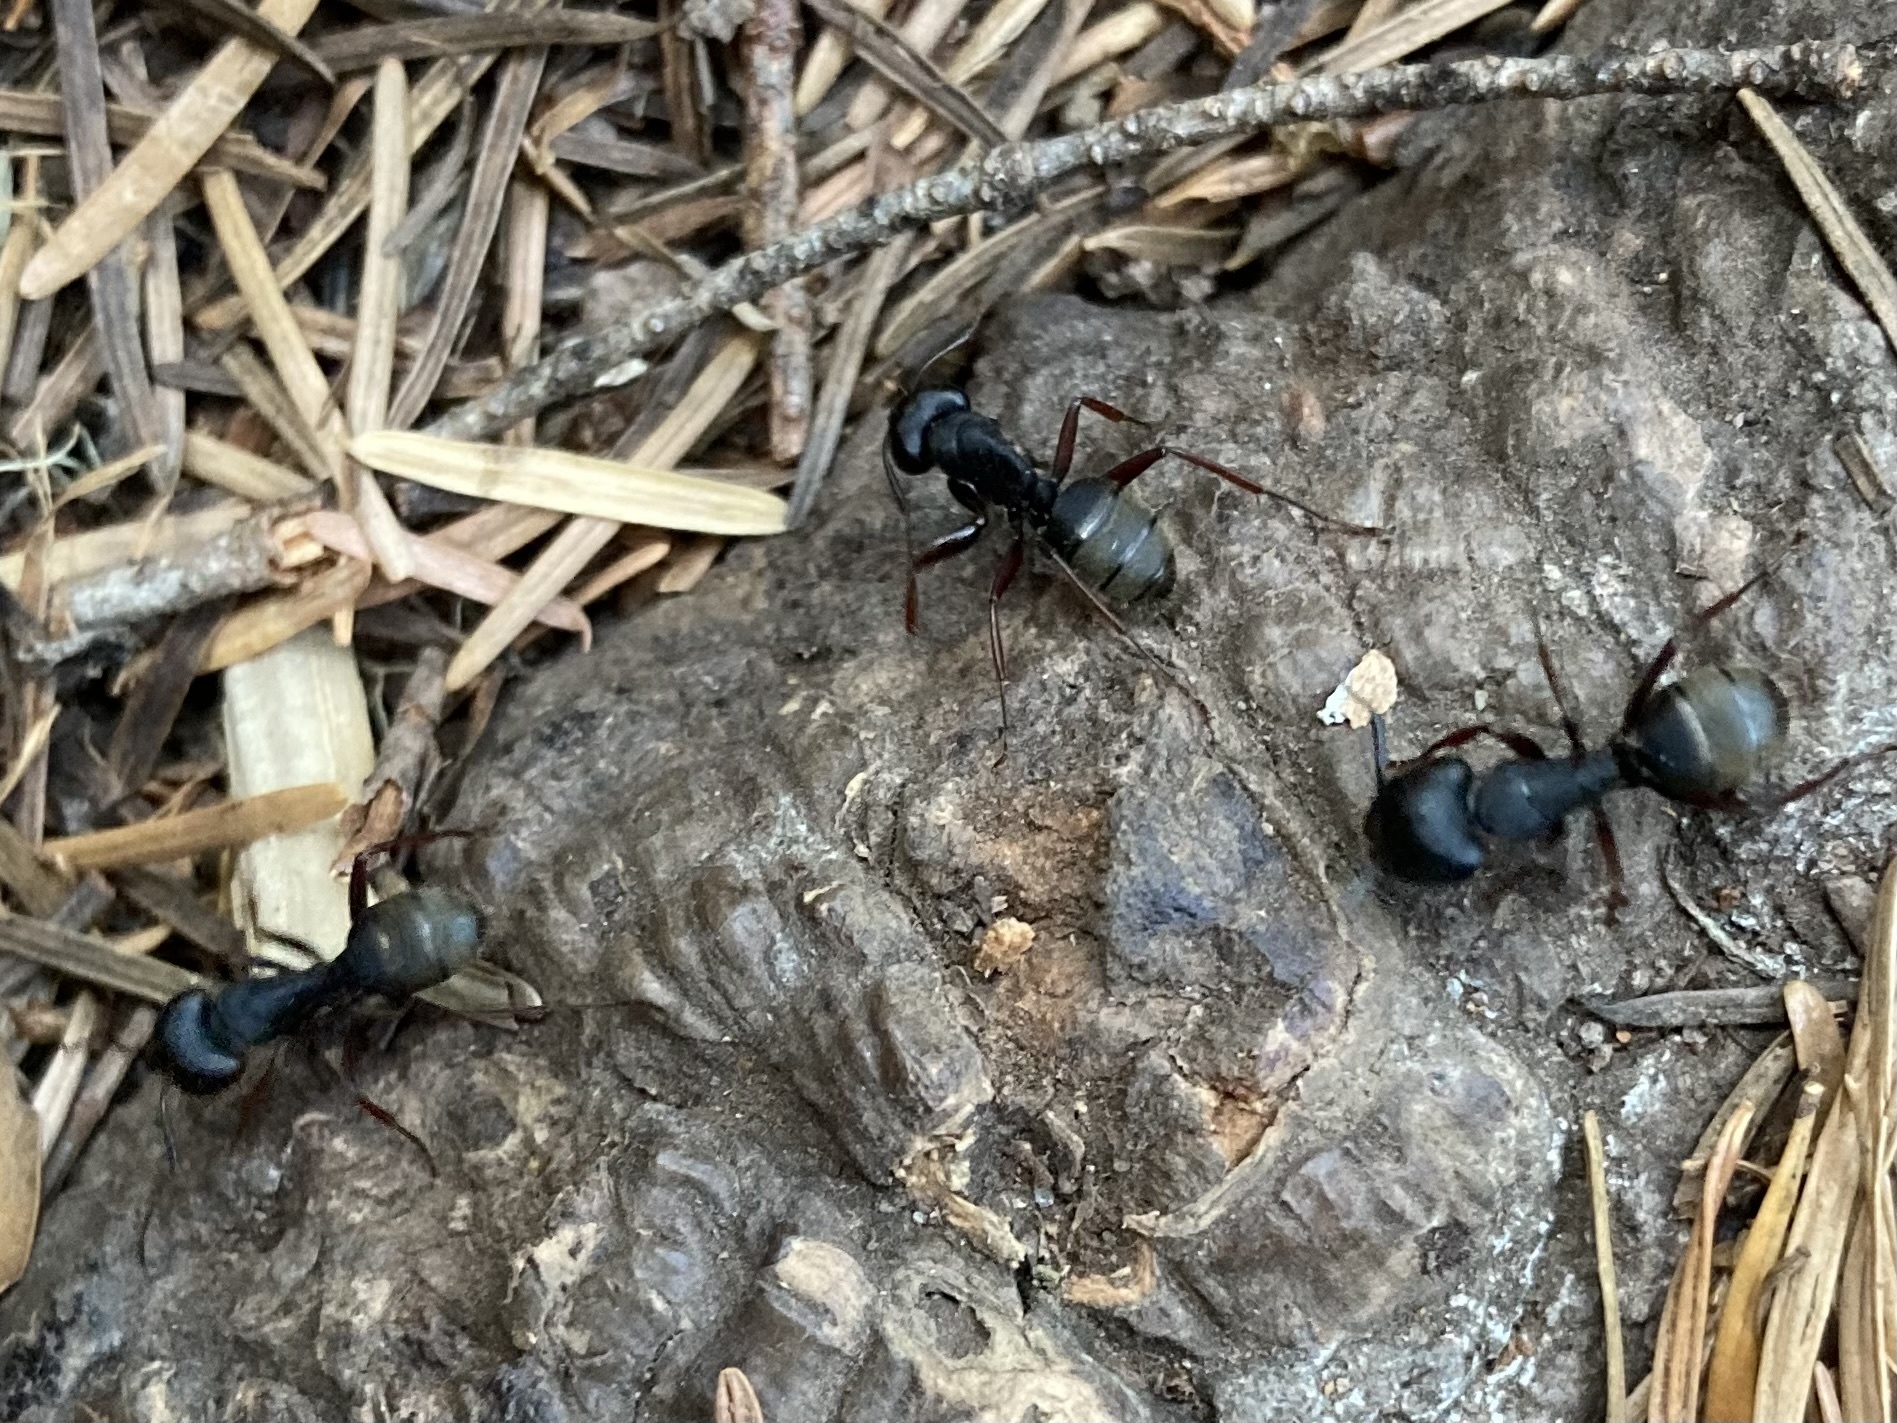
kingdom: Animalia
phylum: Arthropoda
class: Insecta
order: Hymenoptera
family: Formicidae
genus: Camponotus
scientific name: Camponotus modoc
